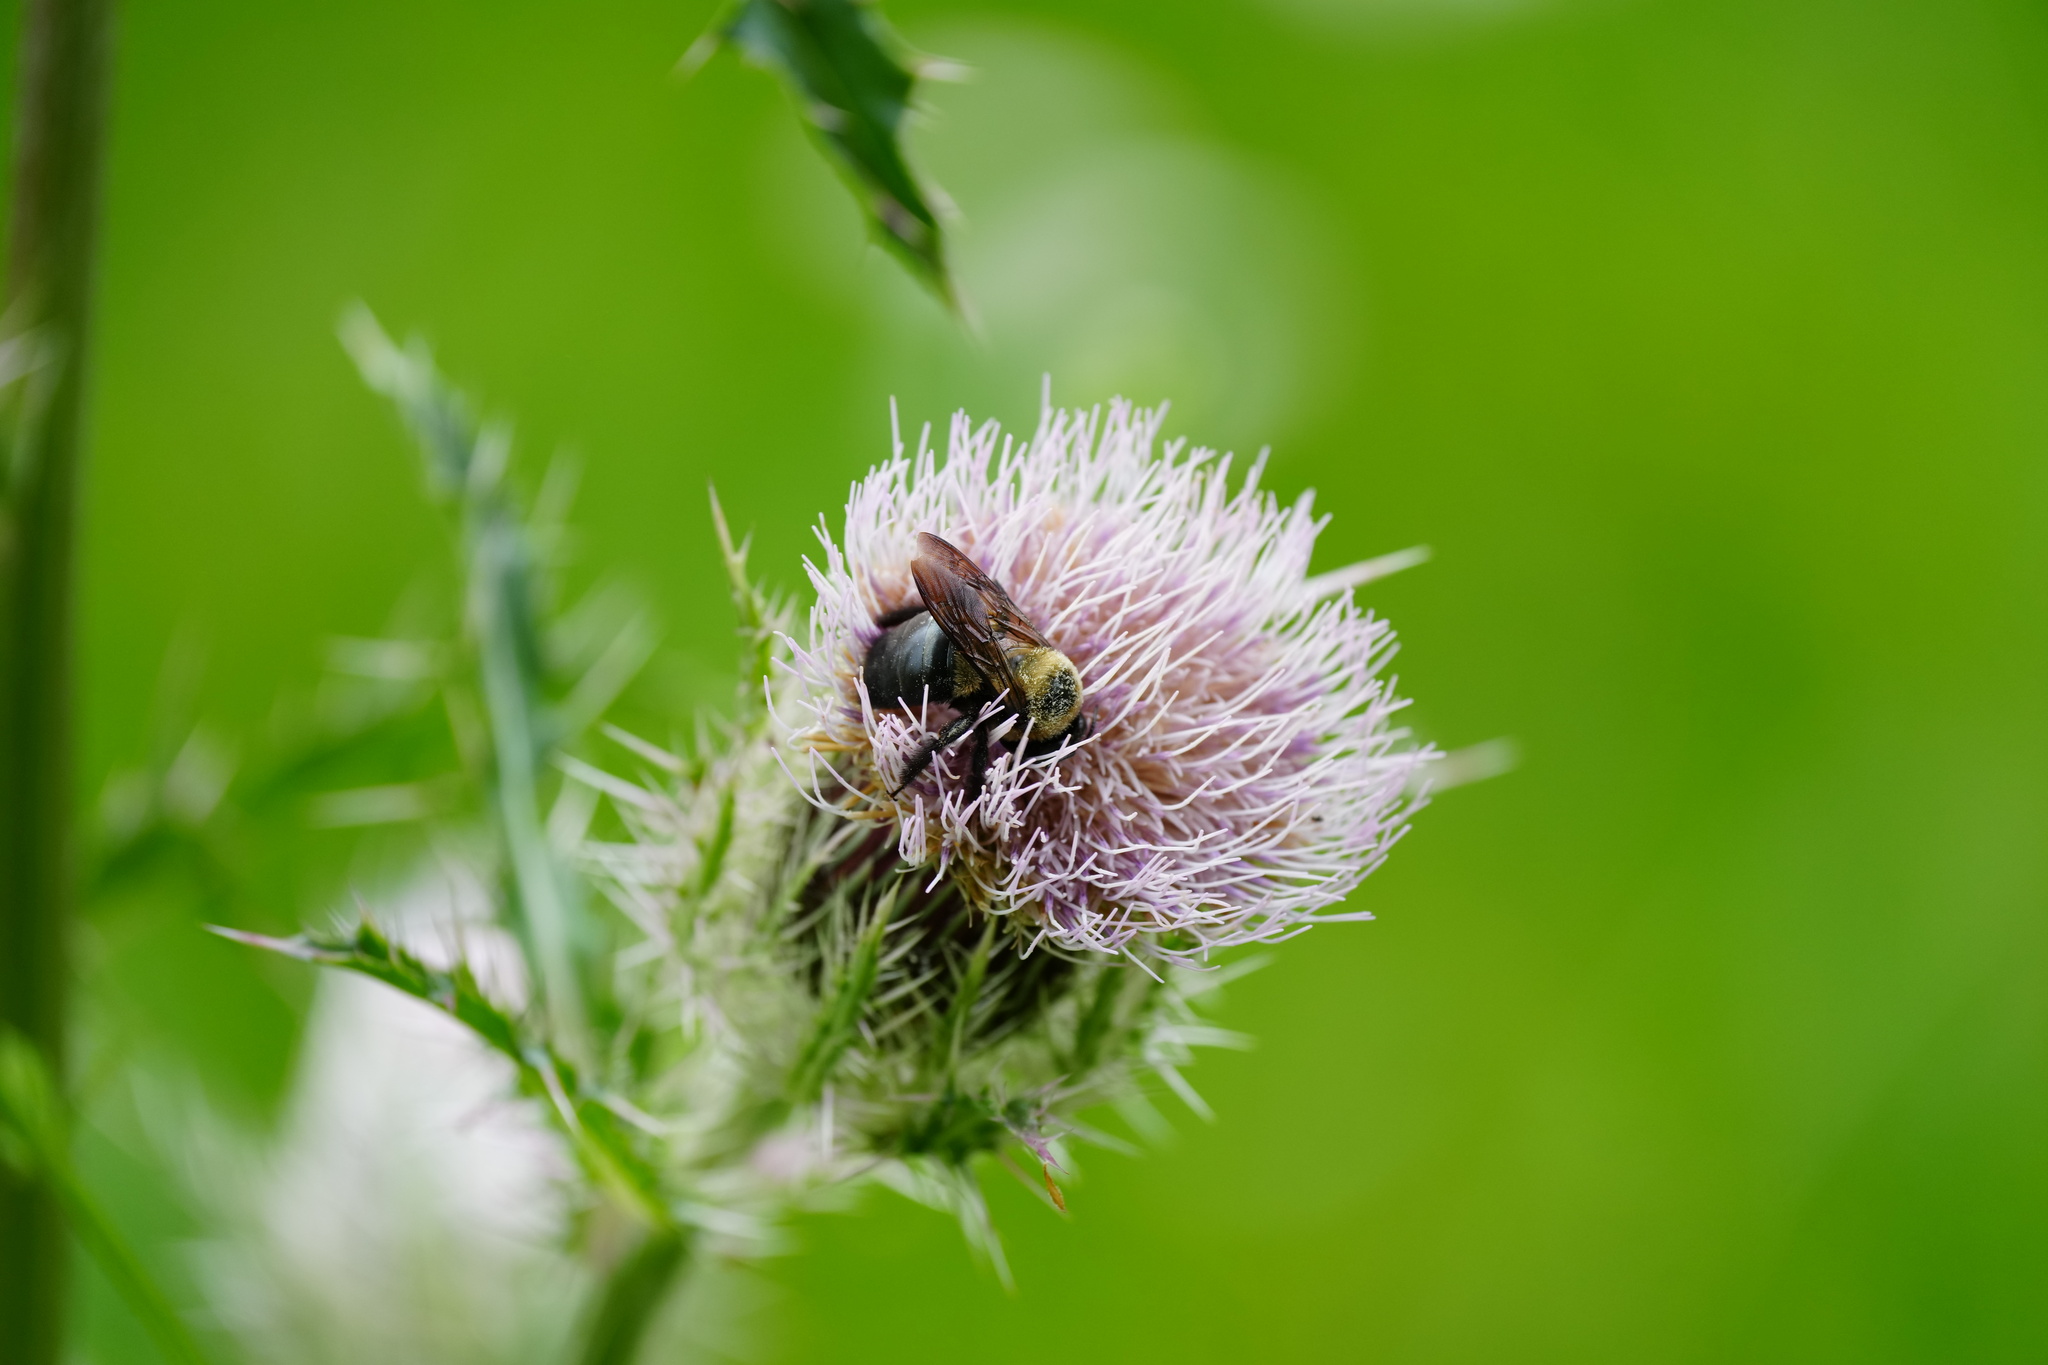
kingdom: Animalia
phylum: Arthropoda
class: Insecta
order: Hymenoptera
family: Apidae
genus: Xylocopa
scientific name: Xylocopa virginica
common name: Carpenter bee
